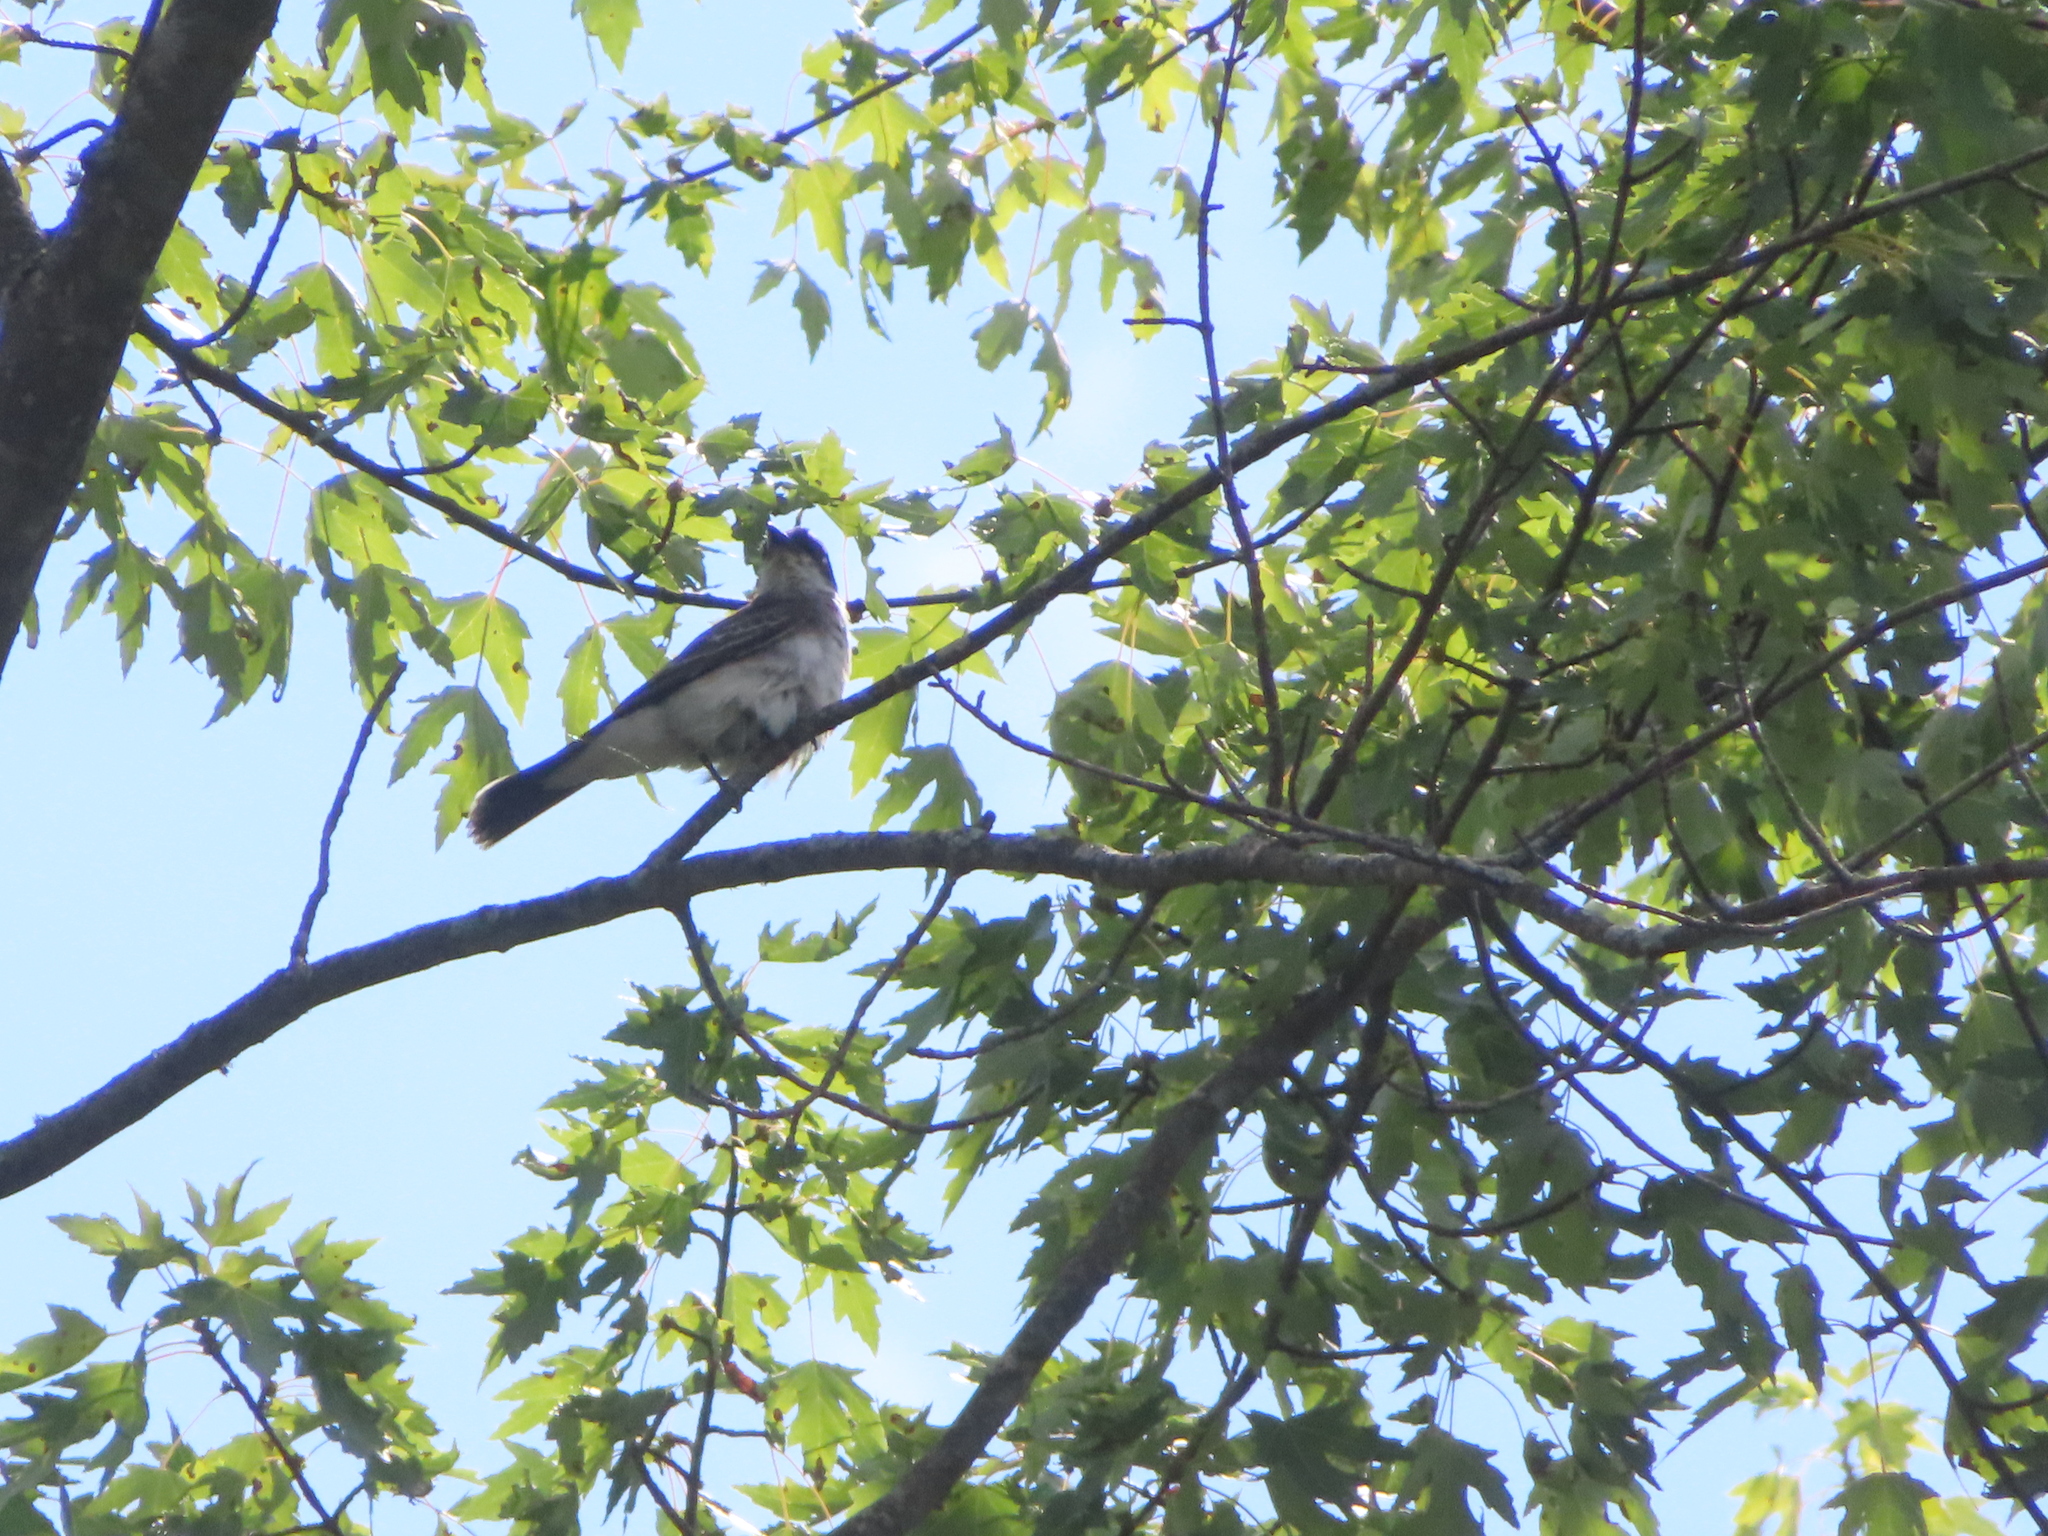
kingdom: Animalia
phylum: Chordata
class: Aves
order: Passeriformes
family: Tyrannidae
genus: Tyrannus
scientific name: Tyrannus tyrannus
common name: Eastern kingbird
